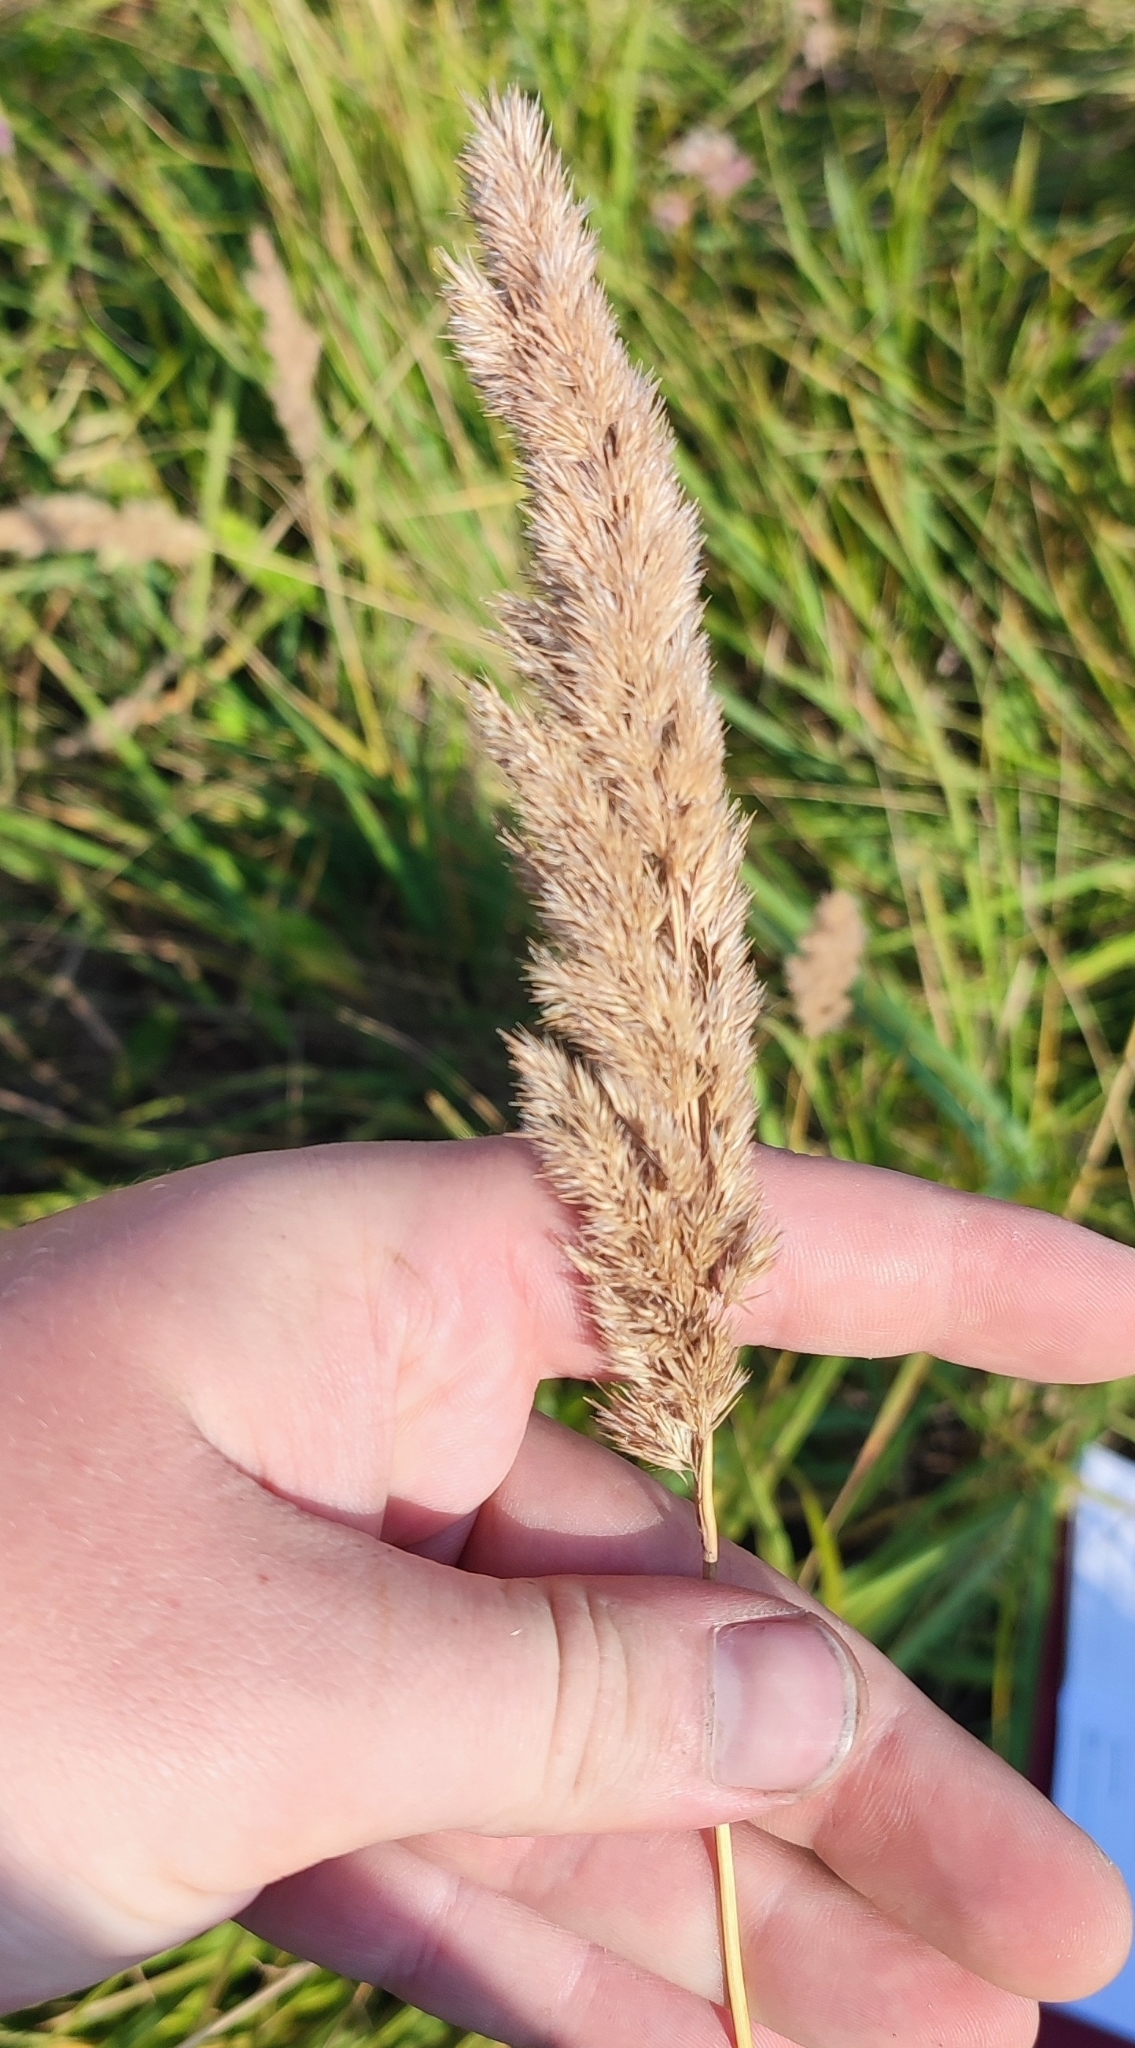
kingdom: Plantae
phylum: Tracheophyta
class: Liliopsida
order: Poales
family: Poaceae
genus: Calamagrostis
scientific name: Calamagrostis epigejos
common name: Wood small-reed
